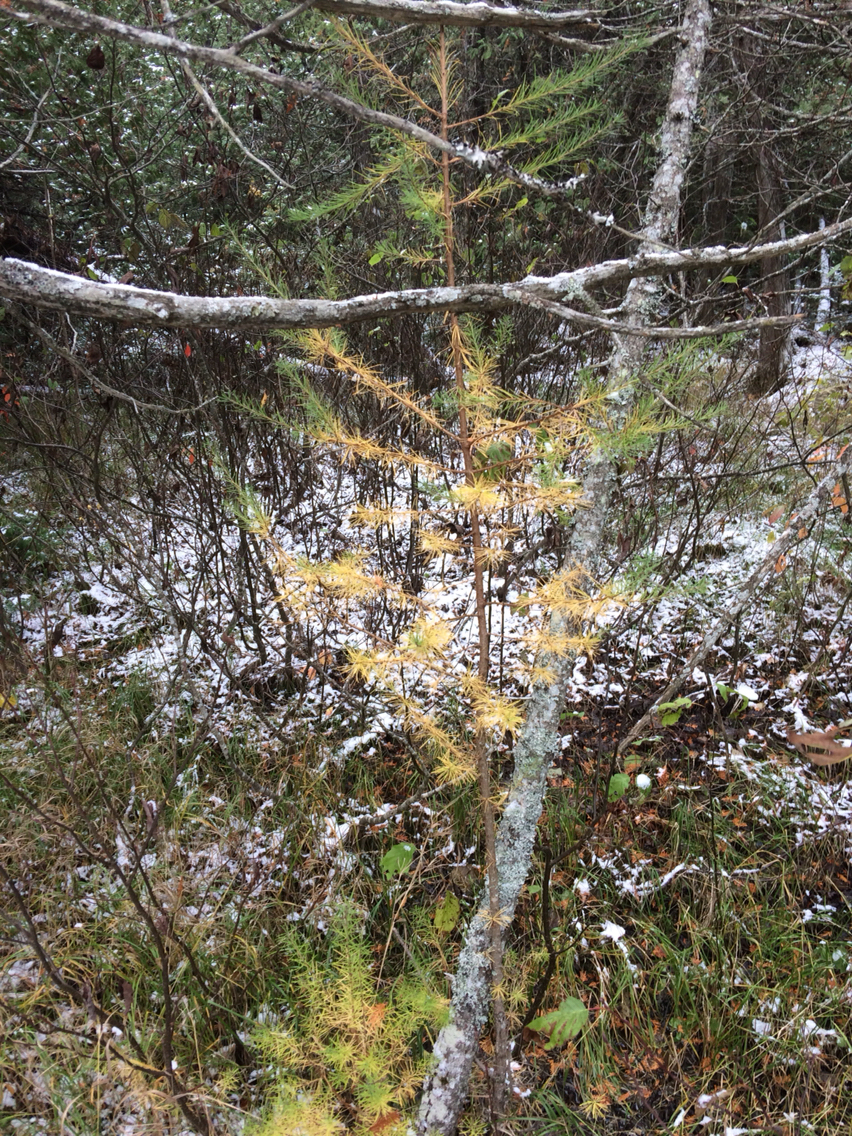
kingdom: Plantae
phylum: Tracheophyta
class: Pinopsida
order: Pinales
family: Pinaceae
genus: Larix
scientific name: Larix laricina
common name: American larch
